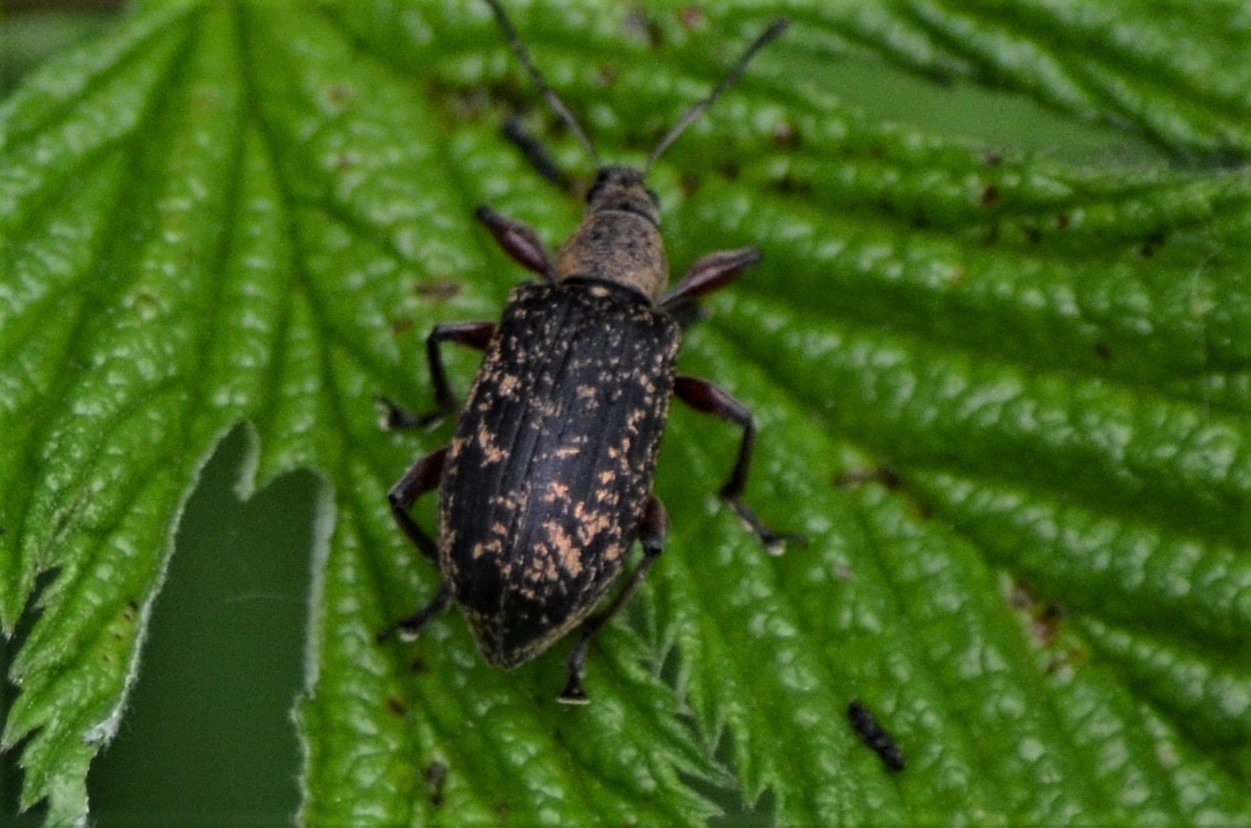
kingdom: Animalia
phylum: Arthropoda
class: Insecta
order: Coleoptera
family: Curculionidae
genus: Phyllobius
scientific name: Phyllobius glaucus
